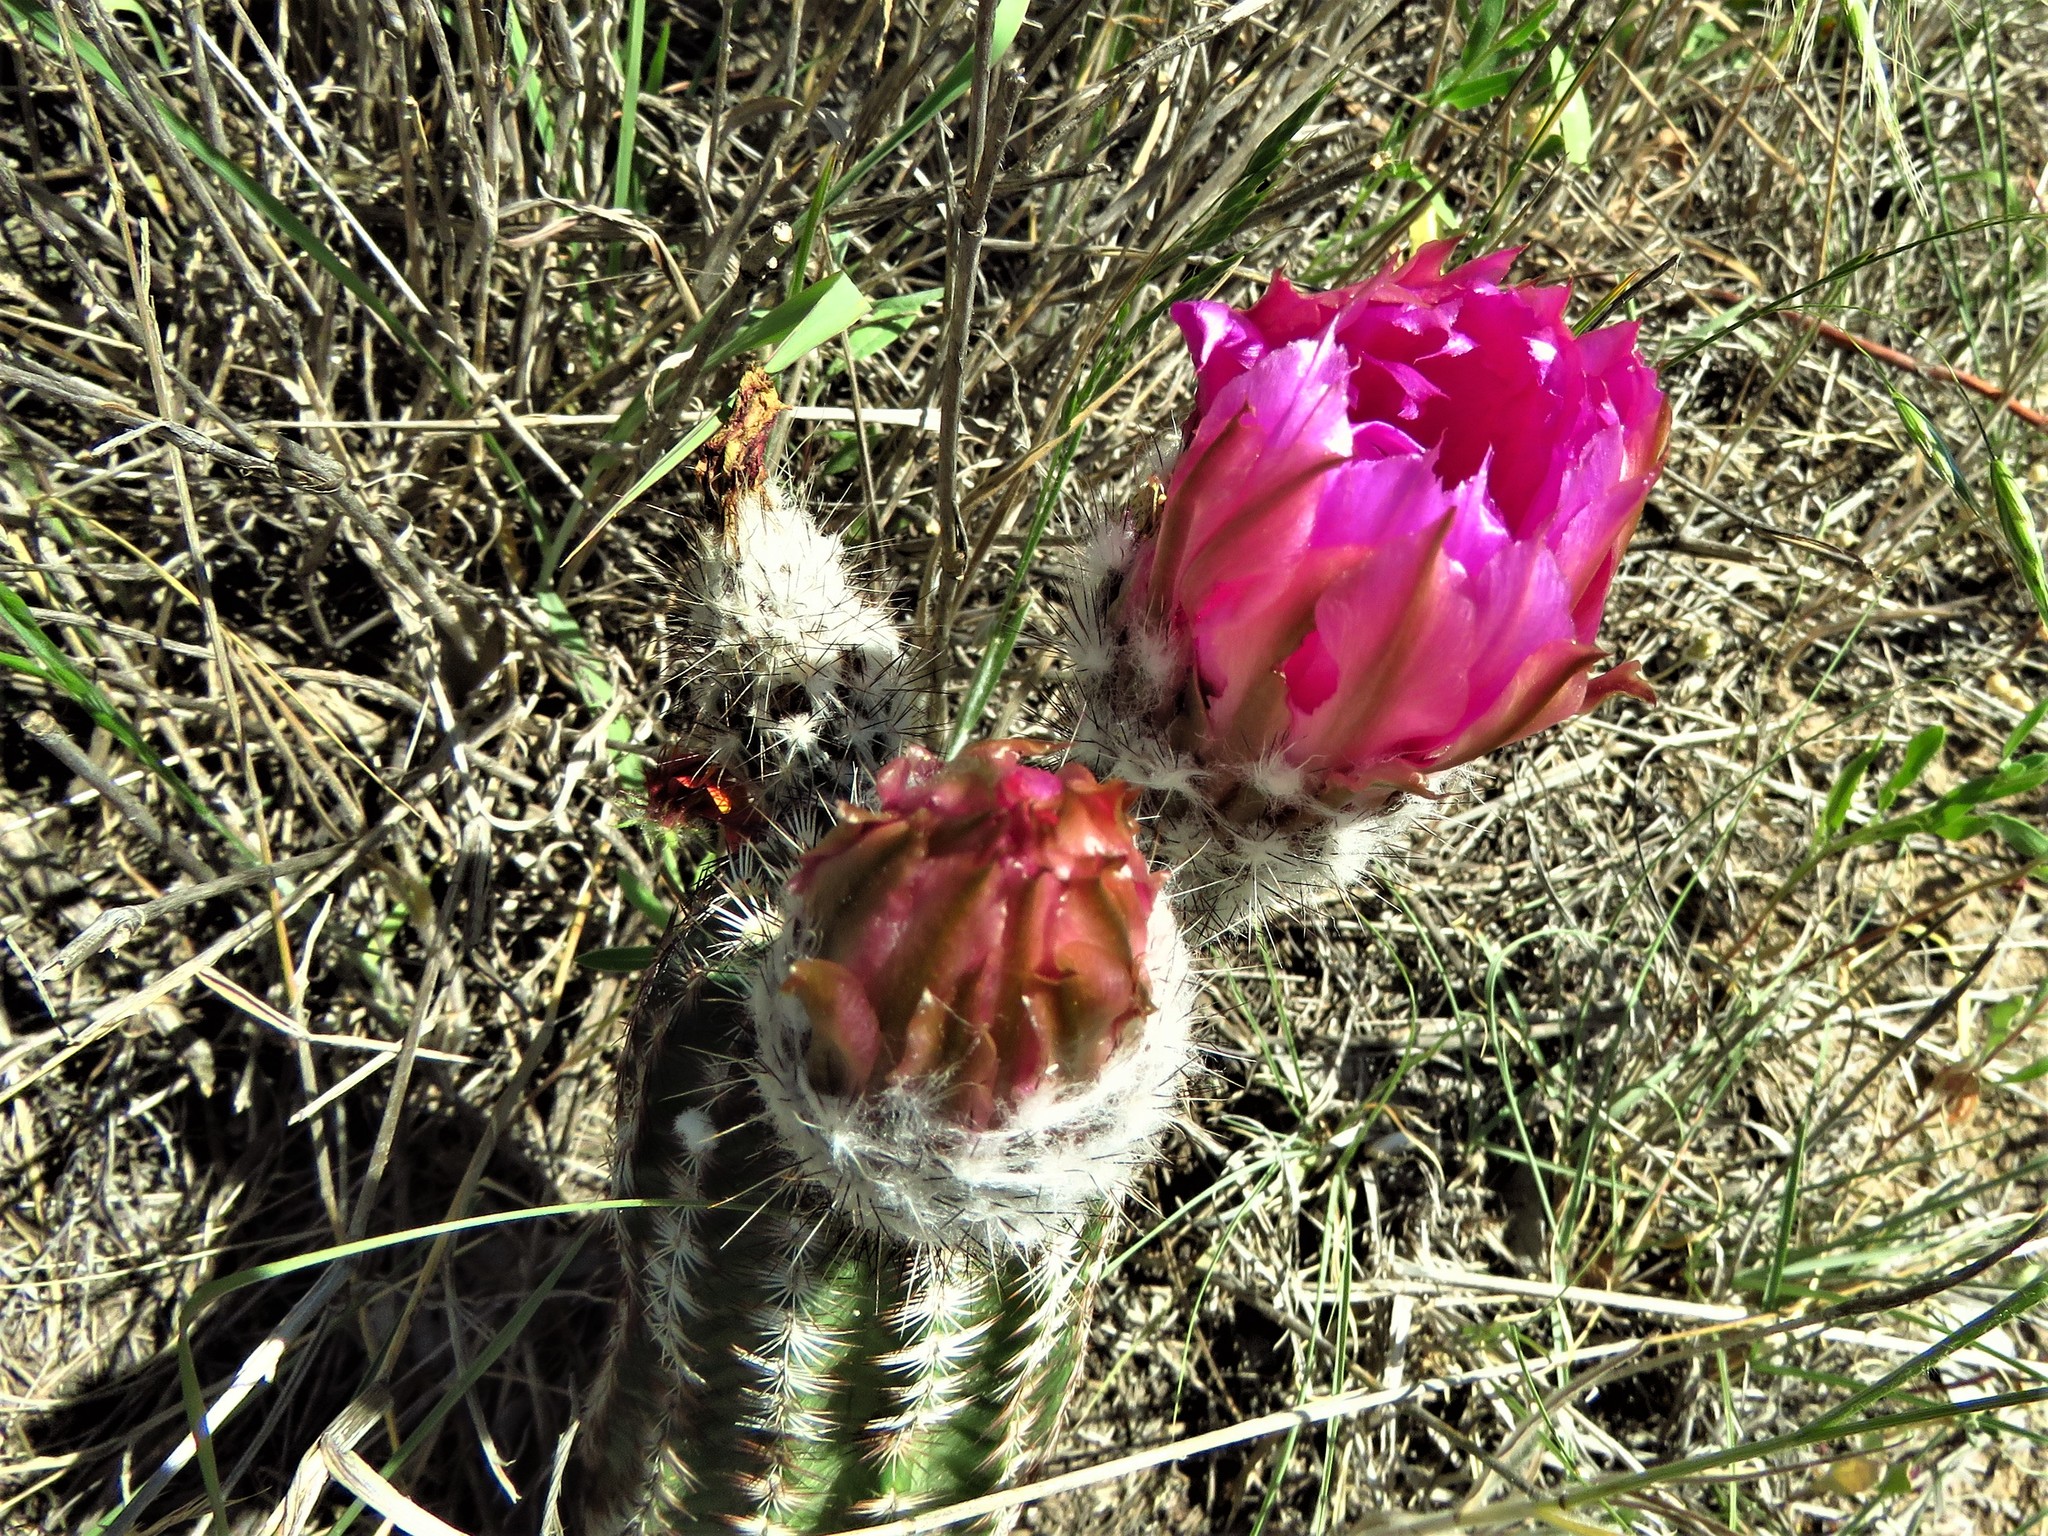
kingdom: Plantae
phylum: Tracheophyta
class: Magnoliopsida
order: Caryophyllales
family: Cactaceae
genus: Echinocereus
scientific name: Echinocereus reichenbachii
